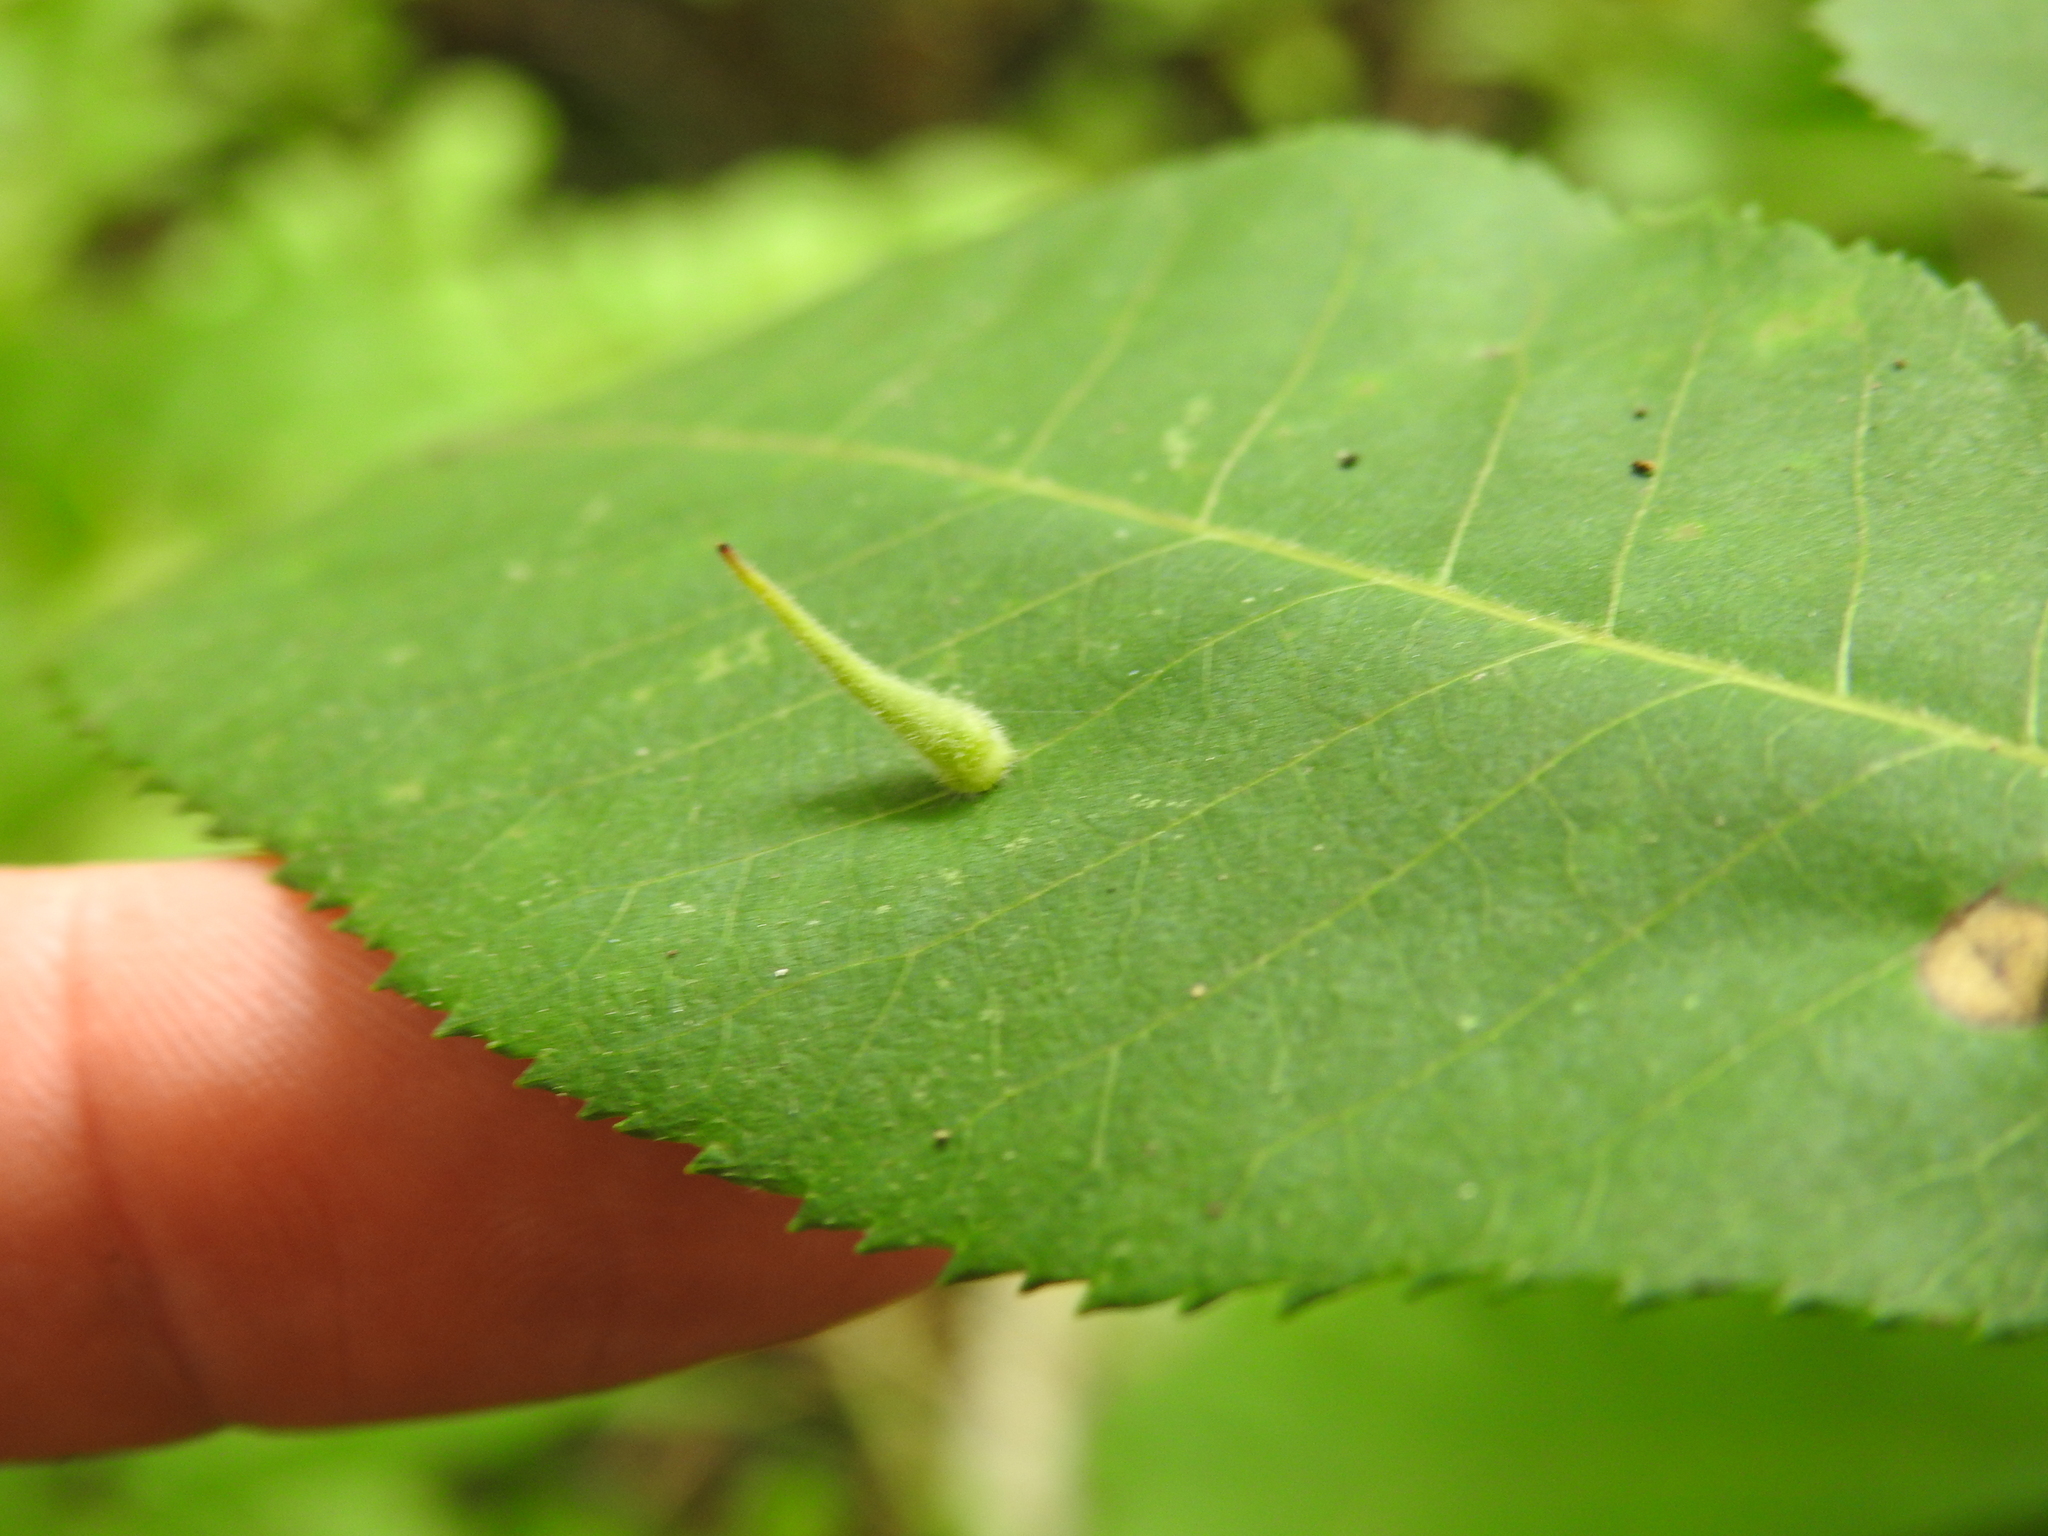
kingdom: Animalia
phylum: Arthropoda
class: Insecta
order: Diptera
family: Cecidomyiidae
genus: Caryomyia
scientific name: Caryomyia spinulosa
